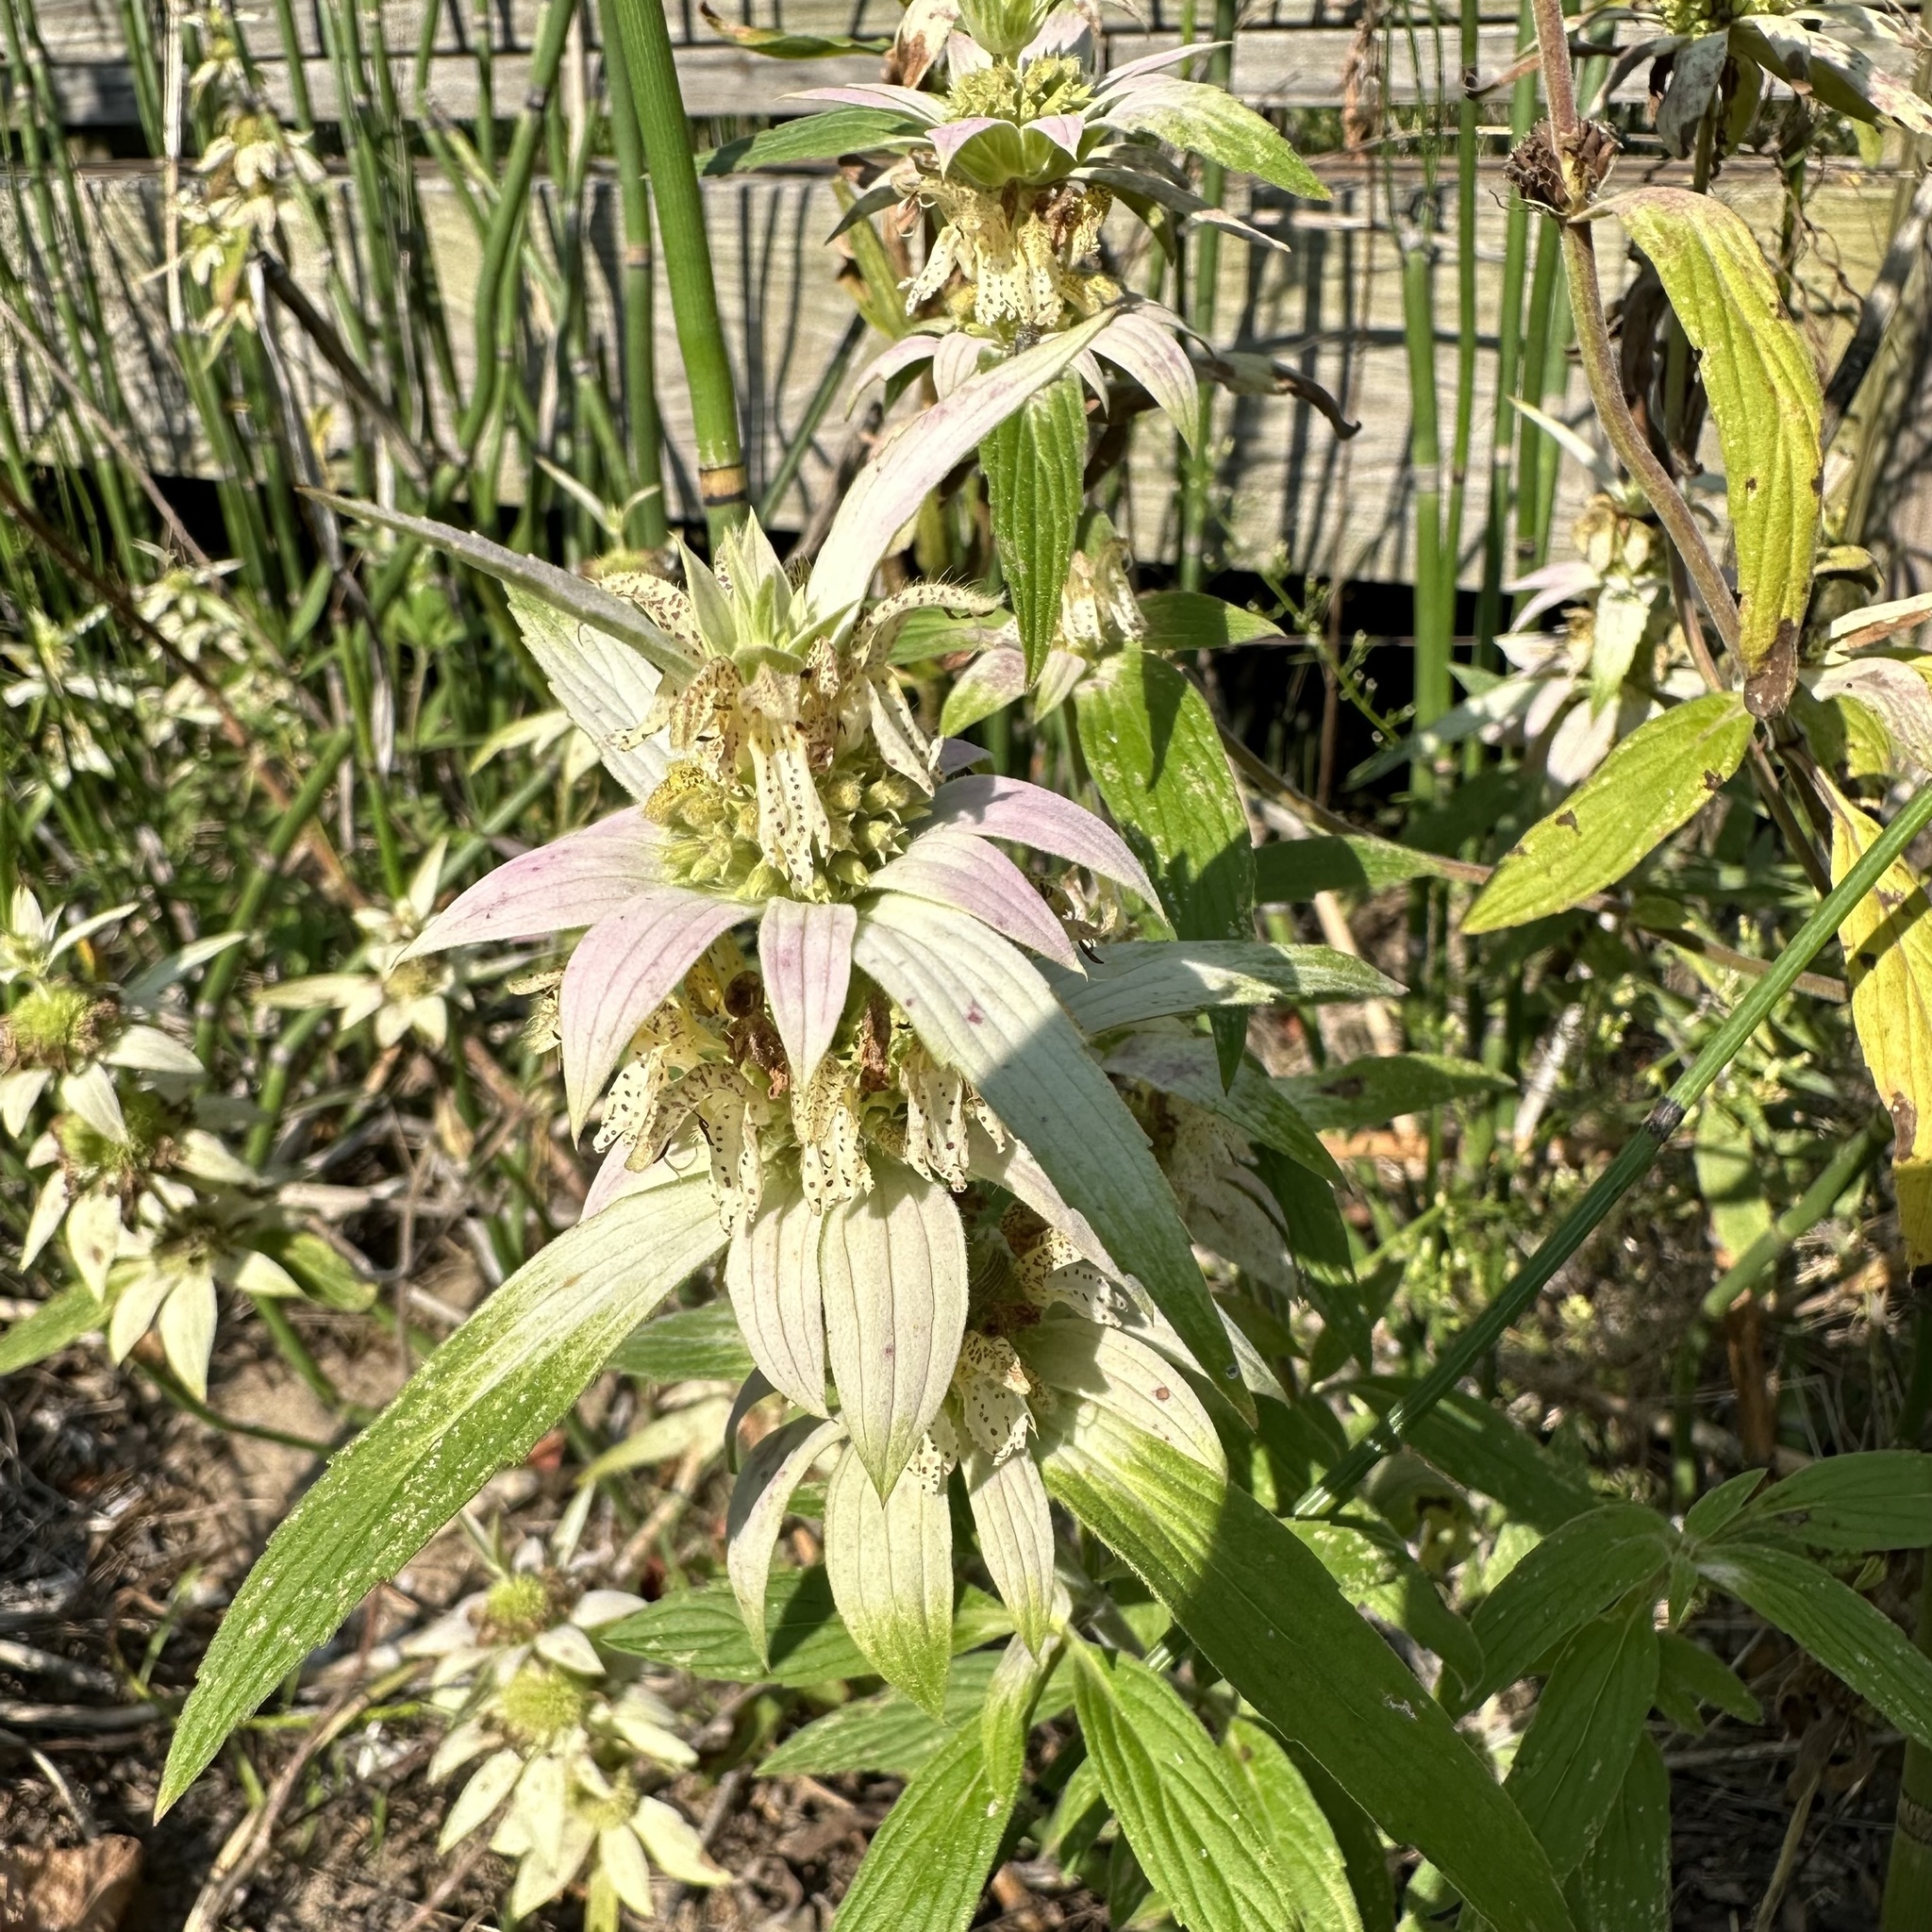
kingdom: Plantae
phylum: Tracheophyta
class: Magnoliopsida
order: Lamiales
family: Lamiaceae
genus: Monarda
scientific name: Monarda punctata
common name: Dotted monarda
